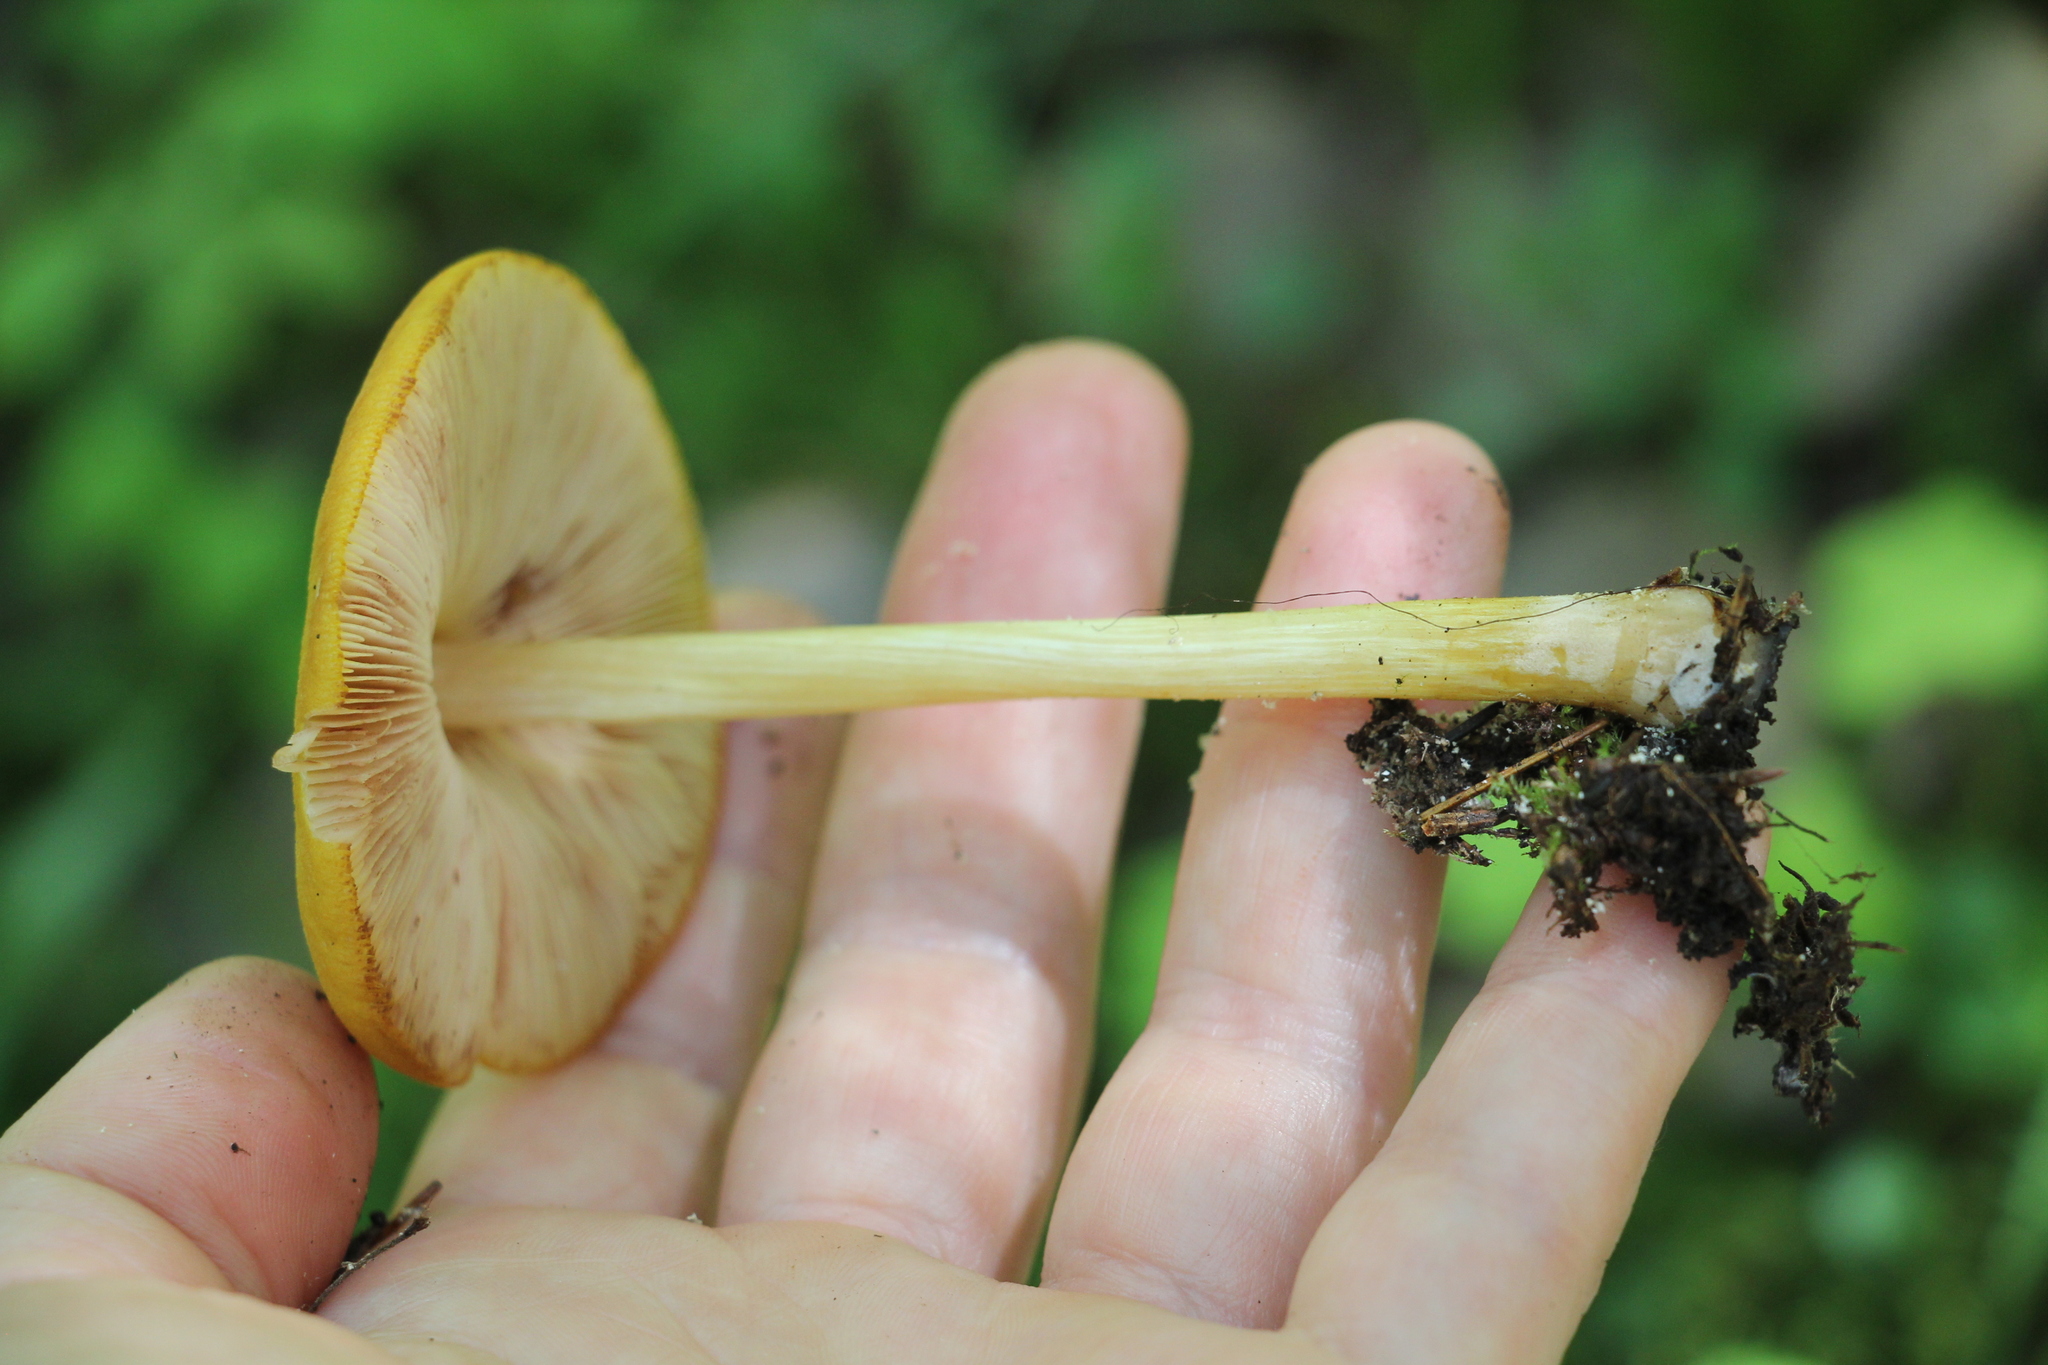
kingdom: Fungi
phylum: Basidiomycota
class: Agaricomycetes
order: Agaricales
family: Pluteaceae
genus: Pluteus
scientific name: Pluteus leoninus
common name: Lion shield
